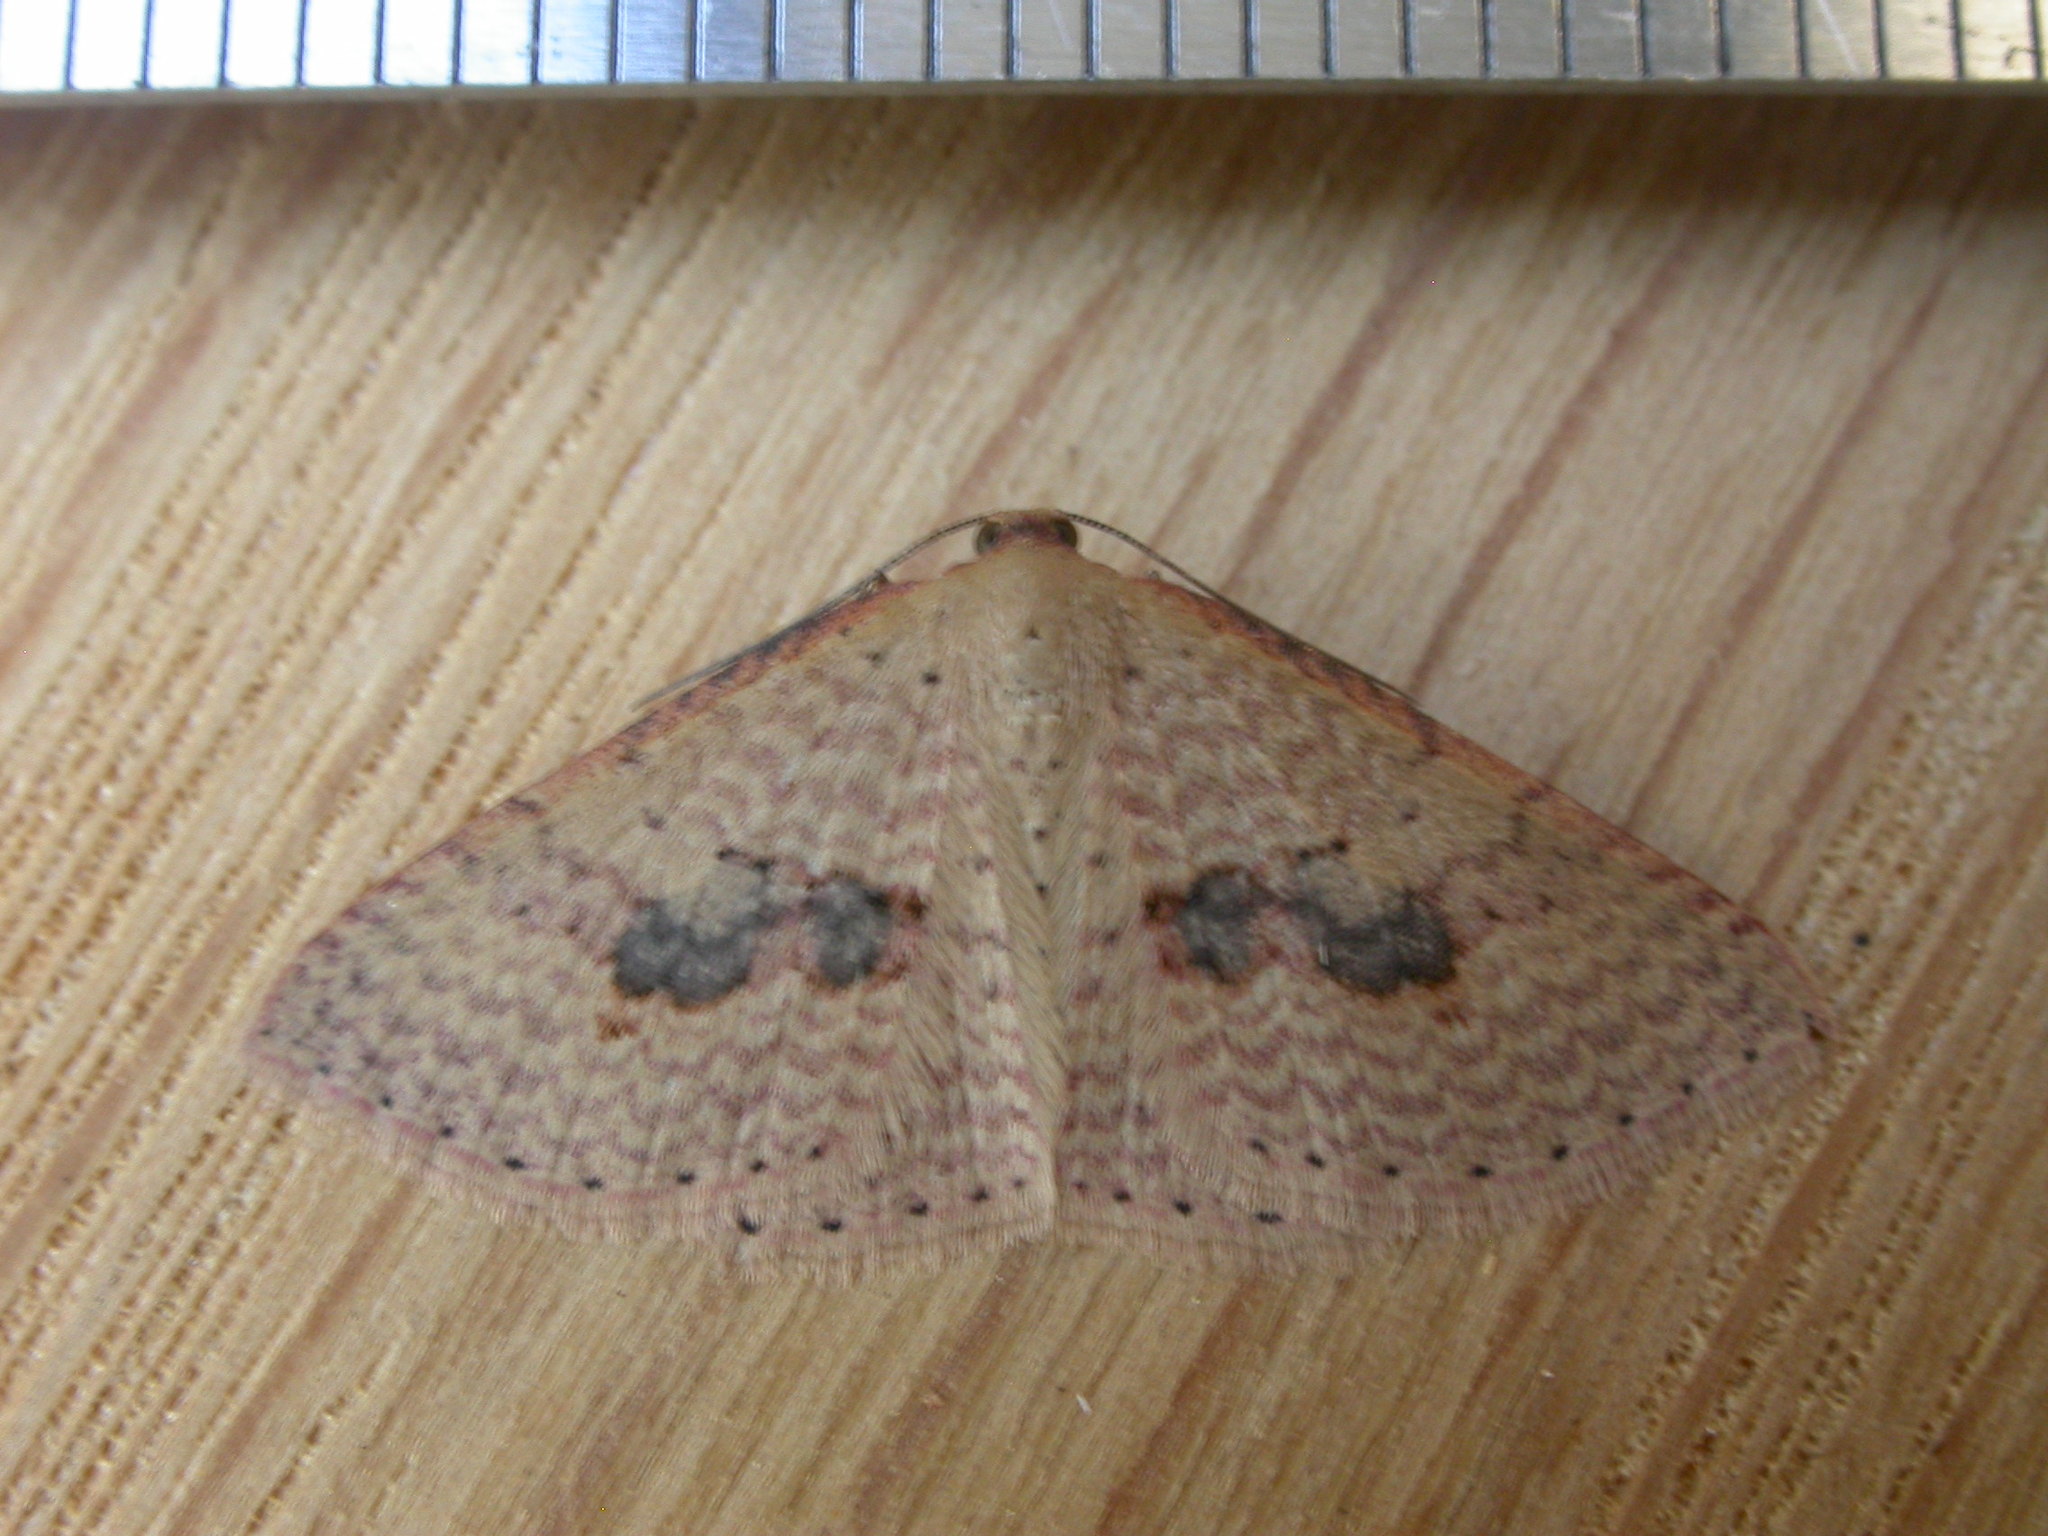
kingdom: Animalia
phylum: Arthropoda
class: Insecta
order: Lepidoptera
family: Geometridae
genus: Epicyme
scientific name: Epicyme rubropunctaria
